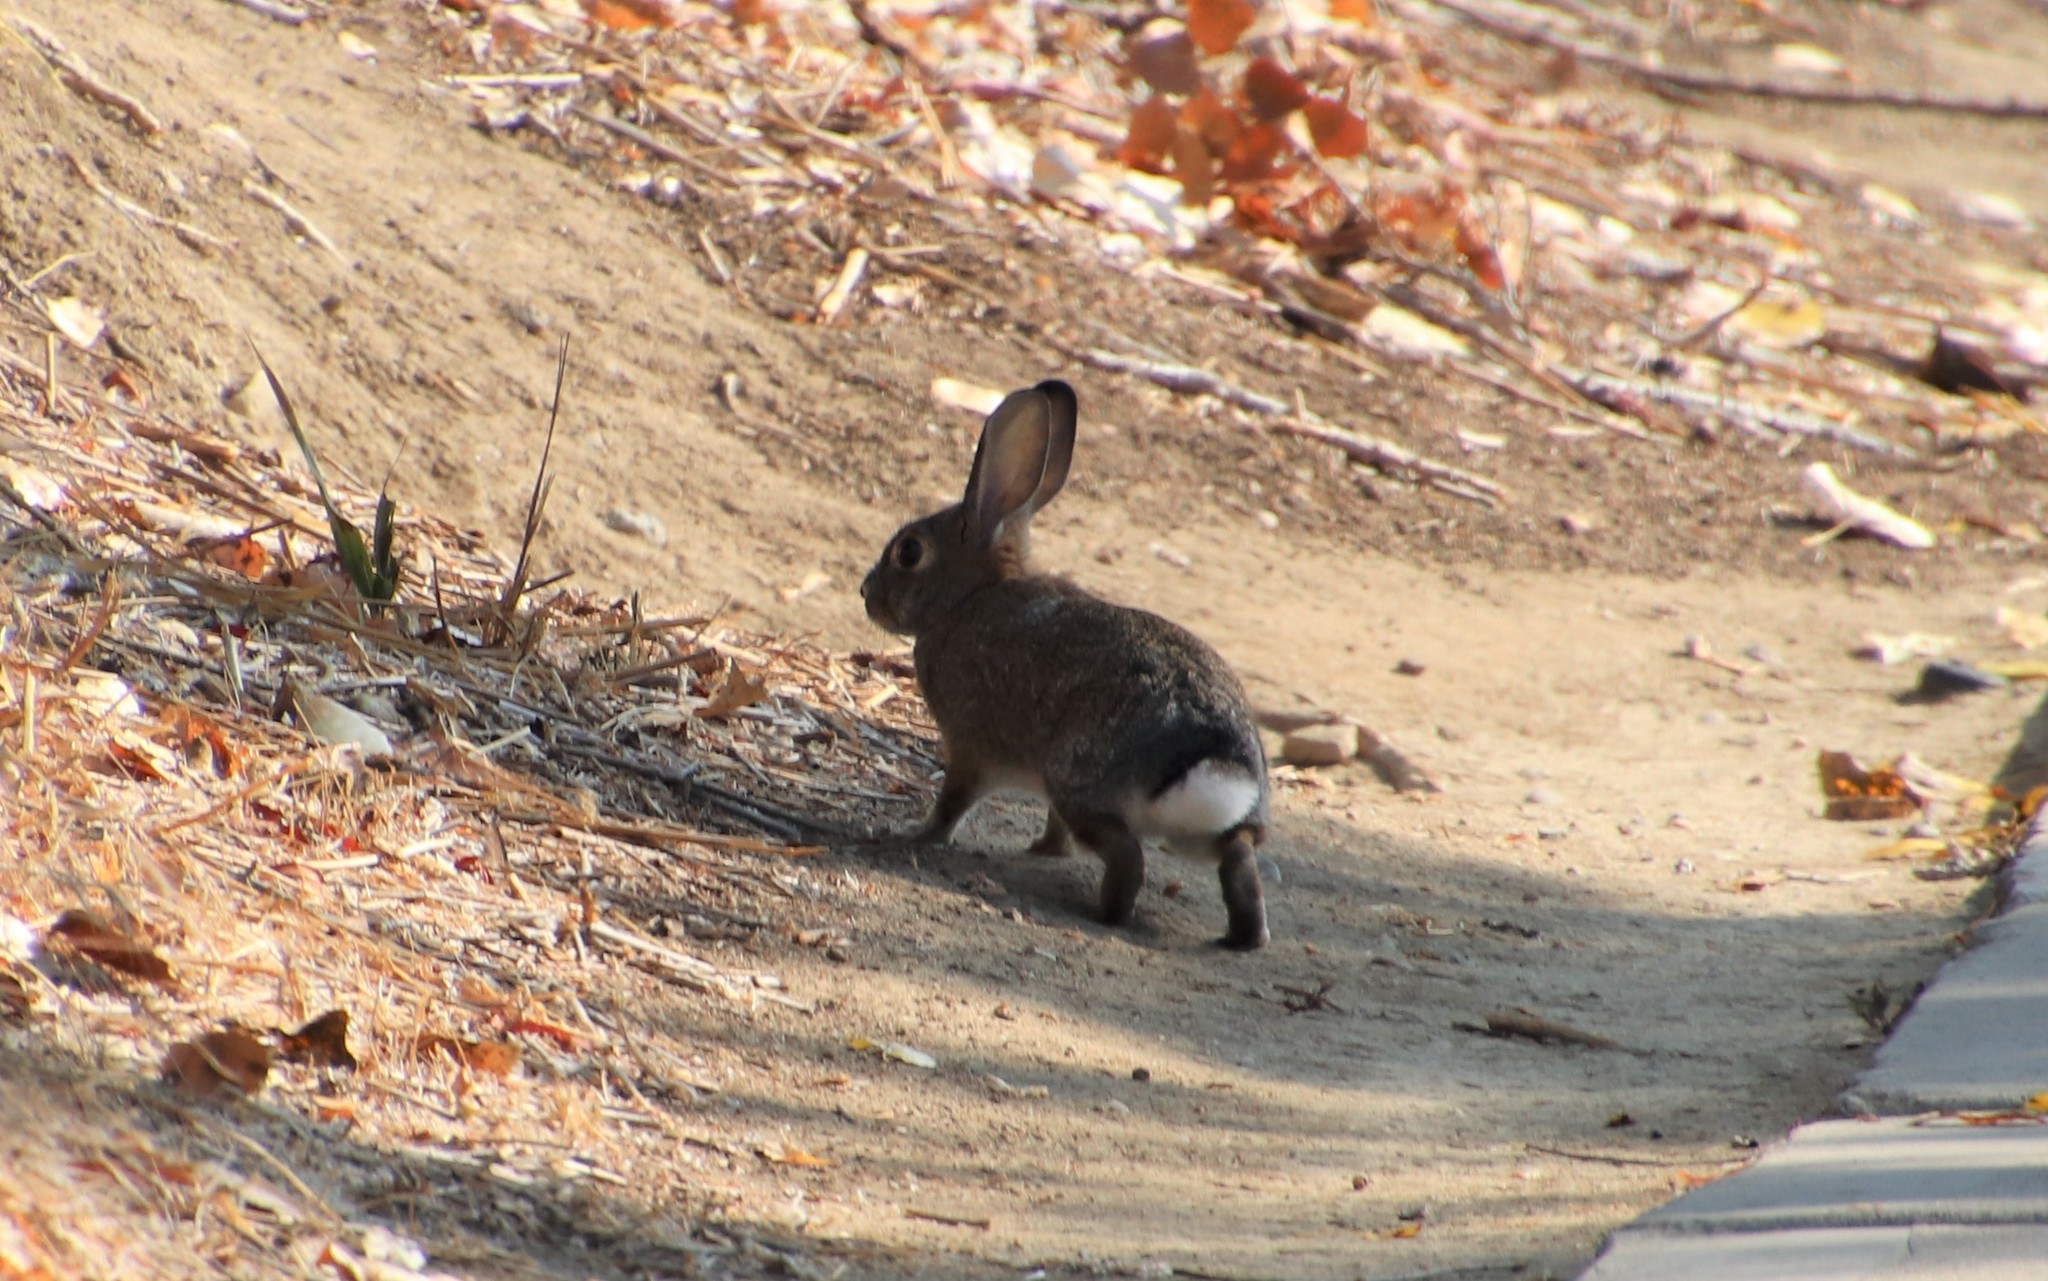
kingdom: Animalia
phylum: Chordata
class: Mammalia
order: Lagomorpha
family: Leporidae
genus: Sylvilagus
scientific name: Sylvilagus audubonii
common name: Desert cottontail
